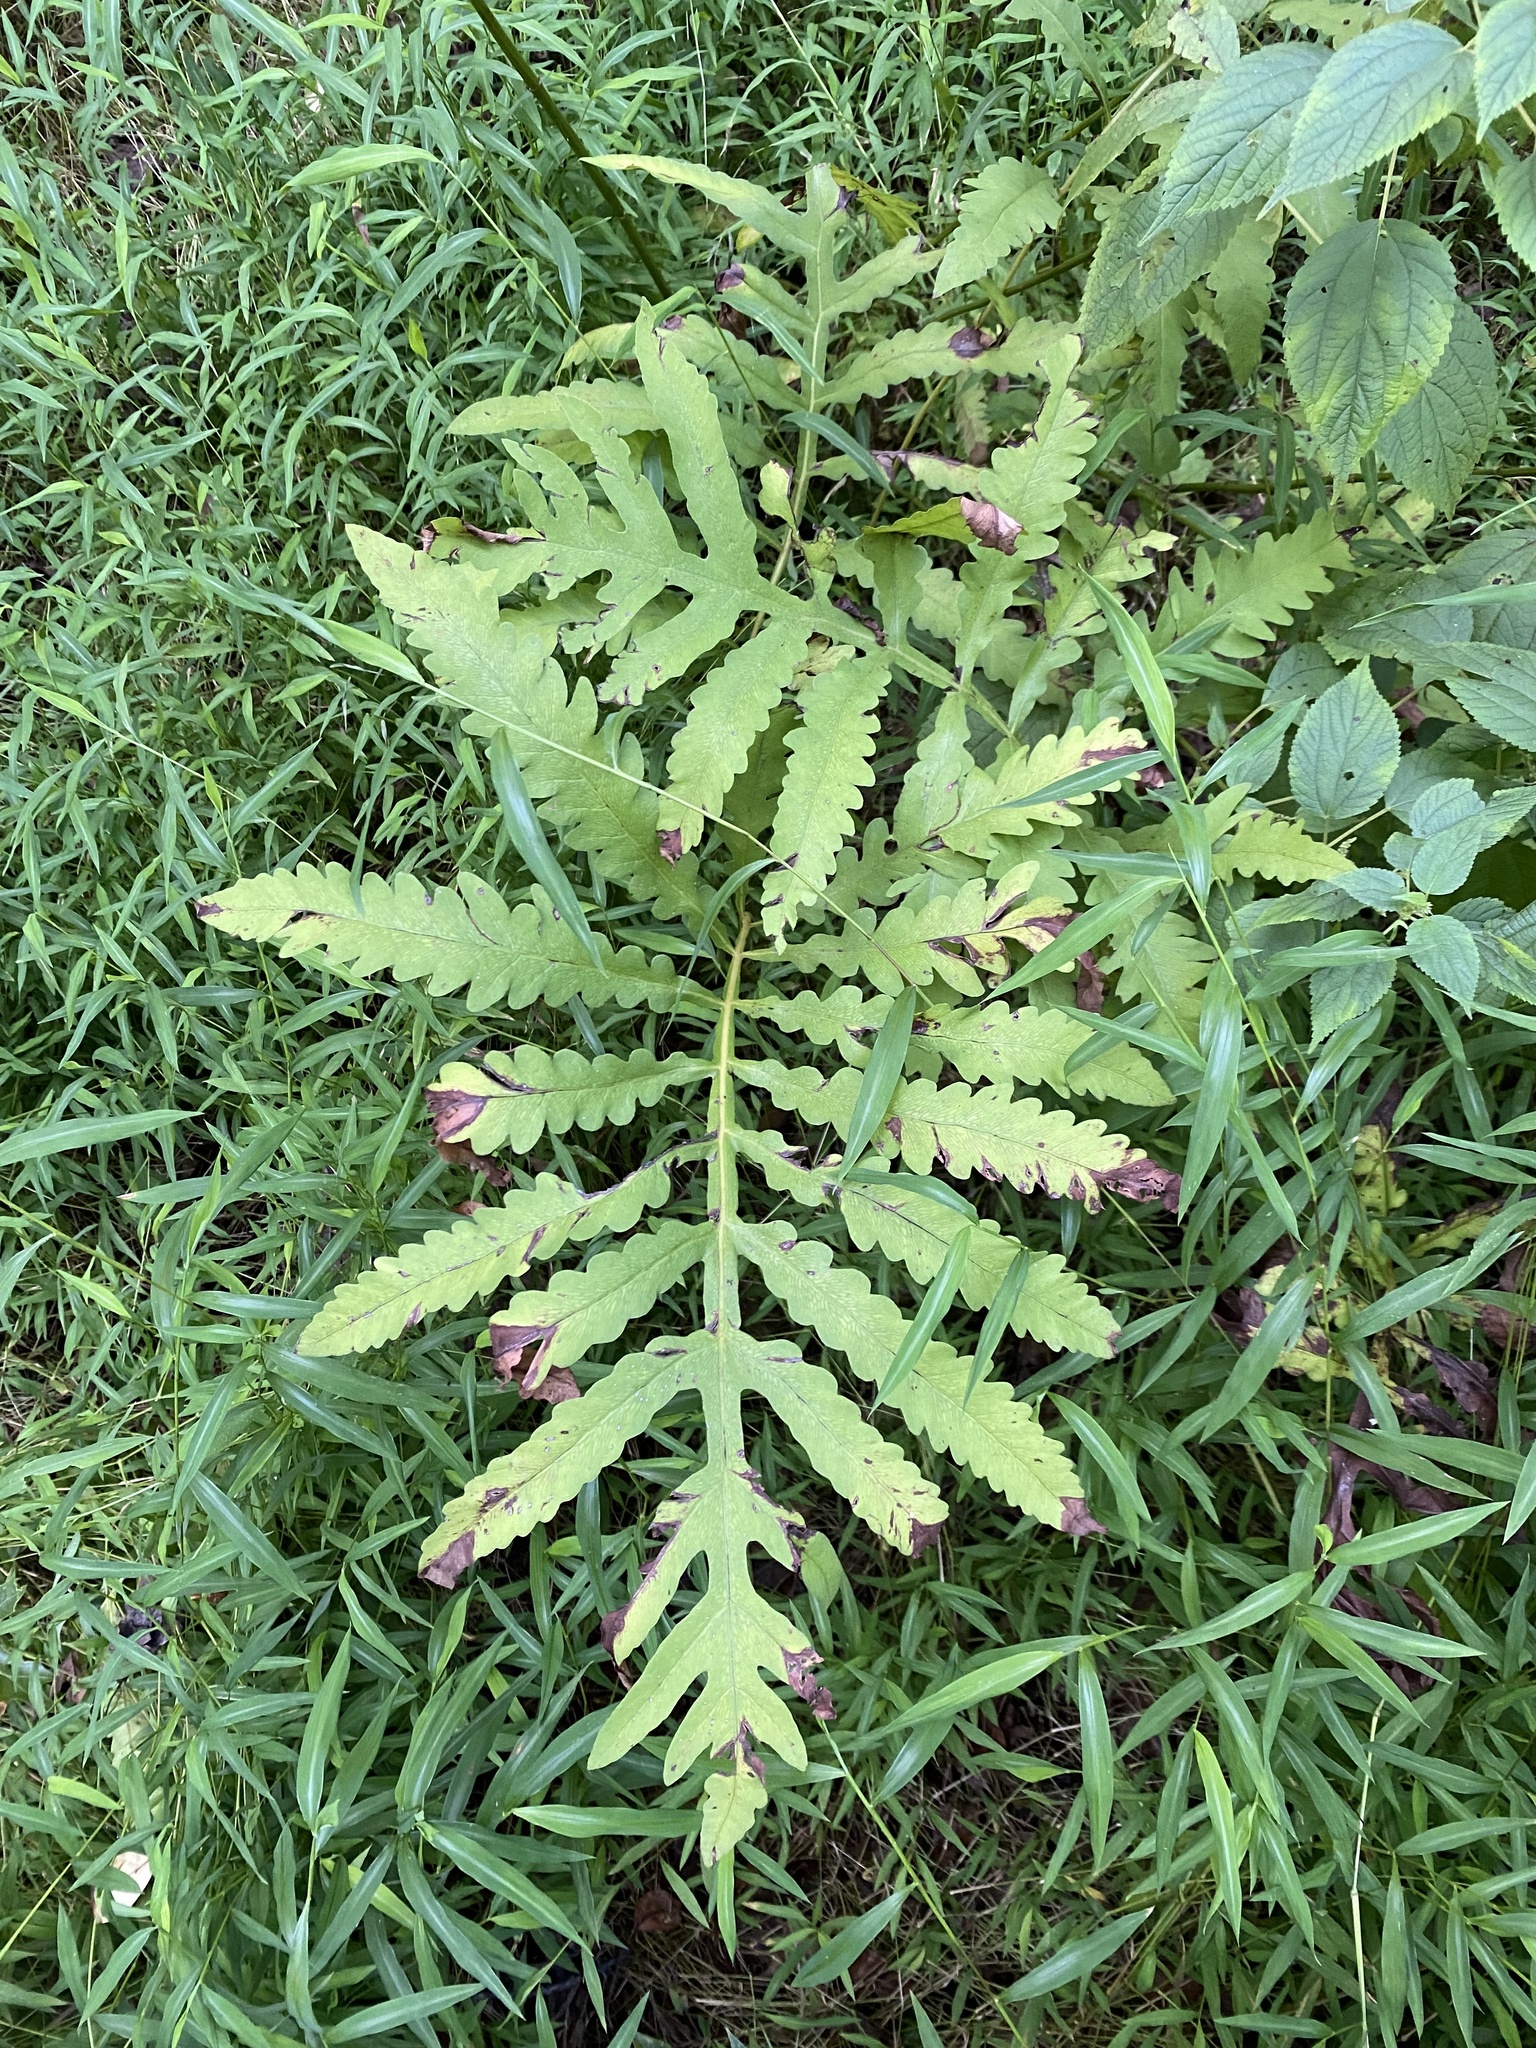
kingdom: Plantae
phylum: Tracheophyta
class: Polypodiopsida
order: Polypodiales
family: Onocleaceae
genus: Onoclea
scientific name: Onoclea sensibilis
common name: Sensitive fern
